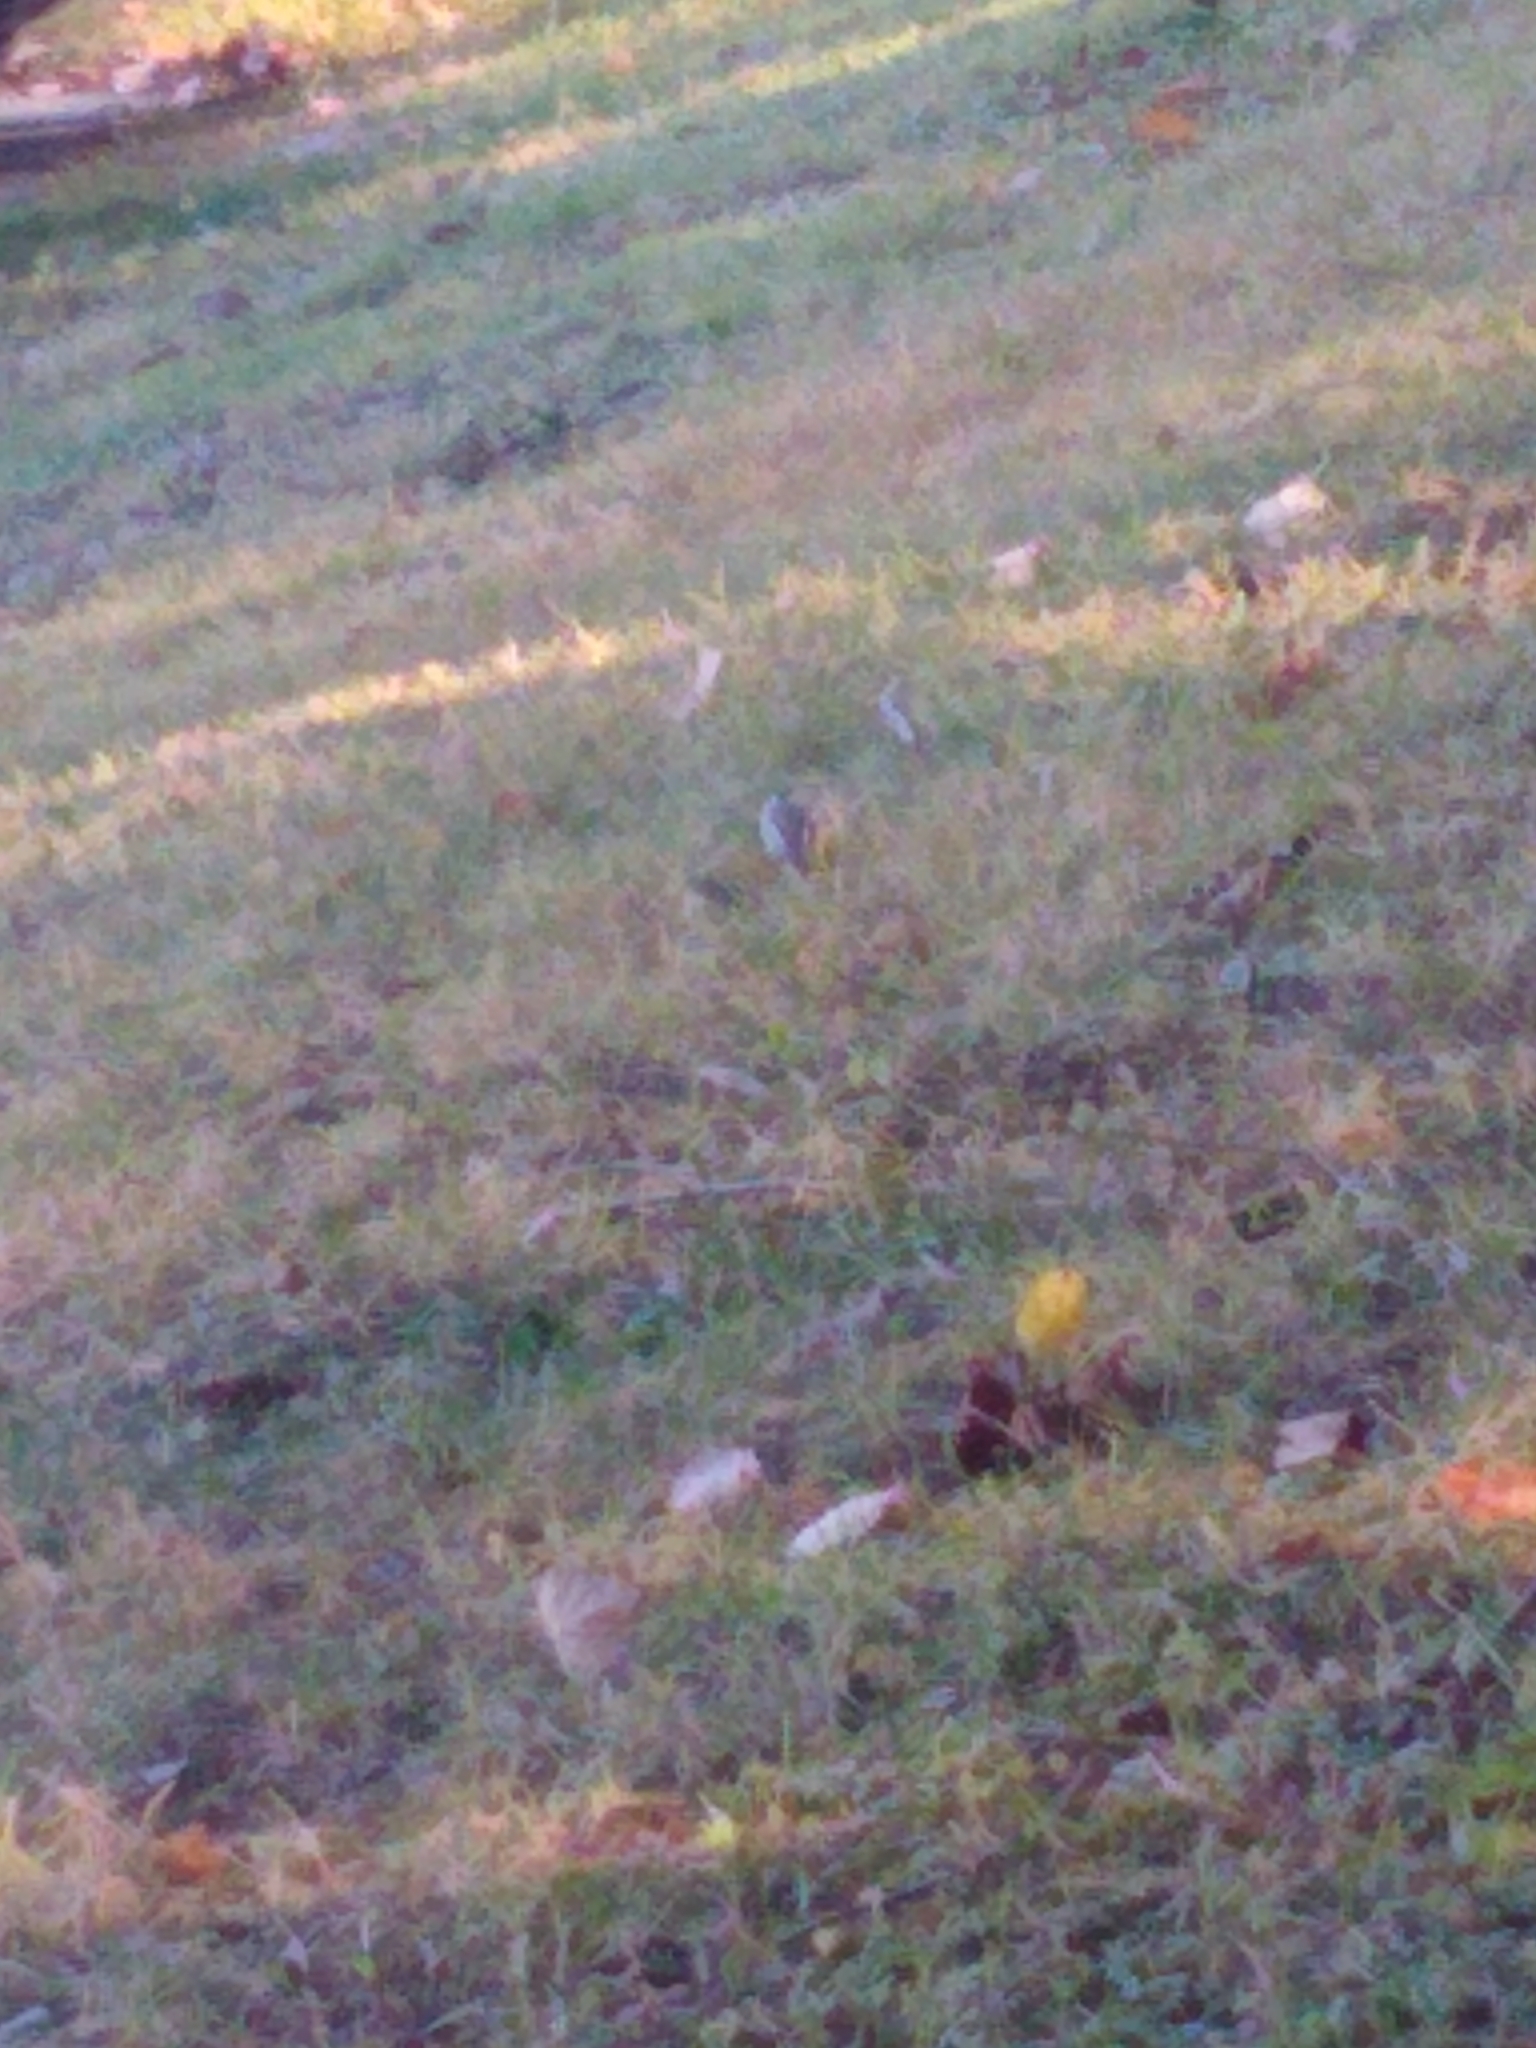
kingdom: Animalia
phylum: Chordata
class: Aves
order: Passeriformes
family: Paridae
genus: Poecile
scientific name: Poecile atricapillus
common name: Black-capped chickadee
